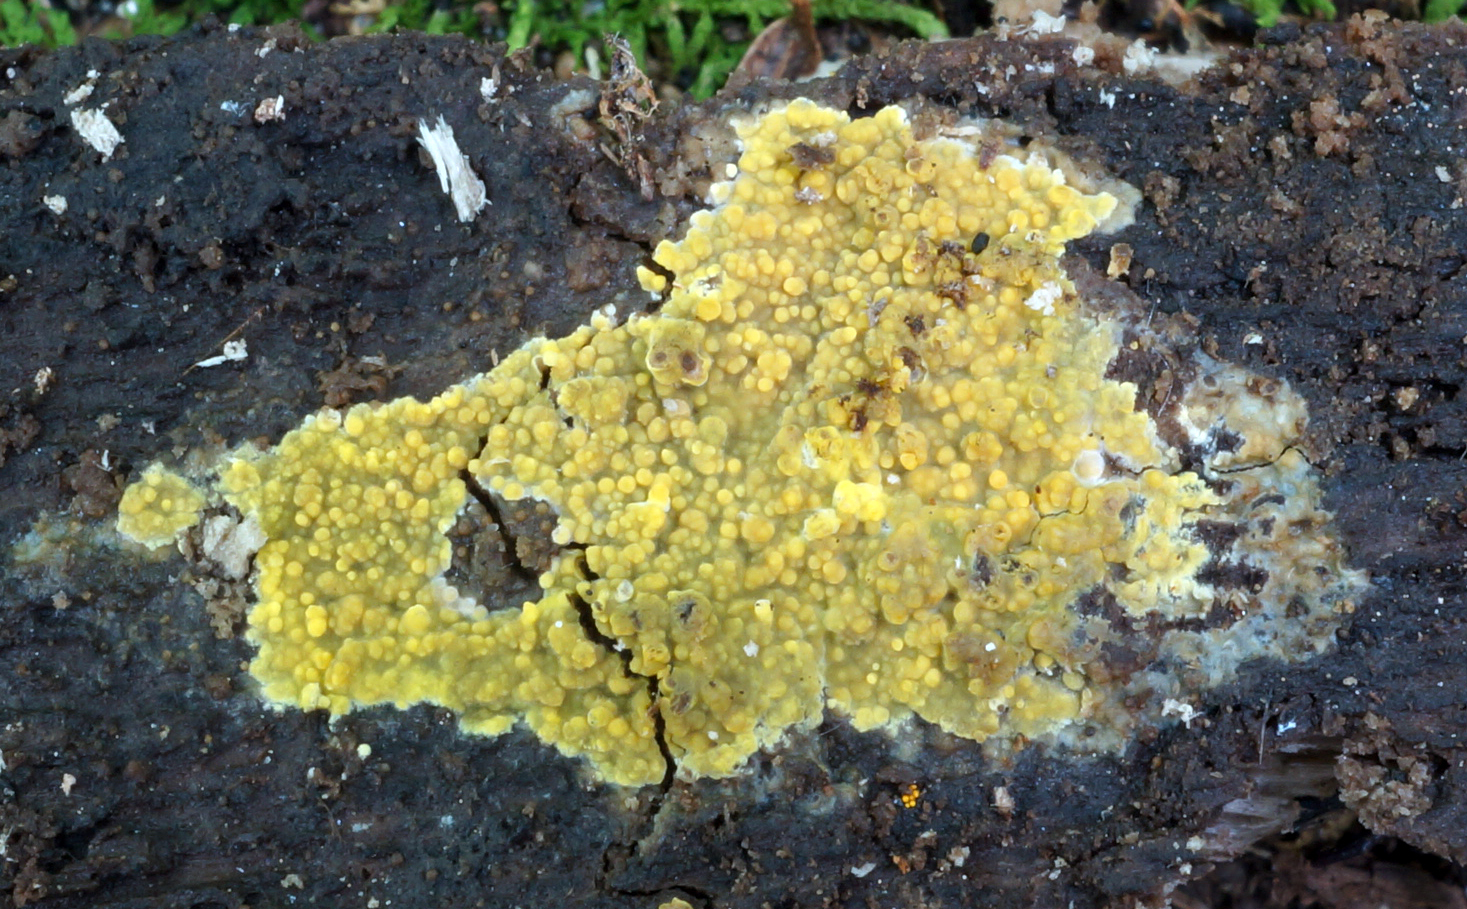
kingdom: Fungi
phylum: Basidiomycota
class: Agaricomycetes
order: Polyporales
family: Meruliaceae
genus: Phlebiodontia
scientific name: Phlebiodontia subochracea
